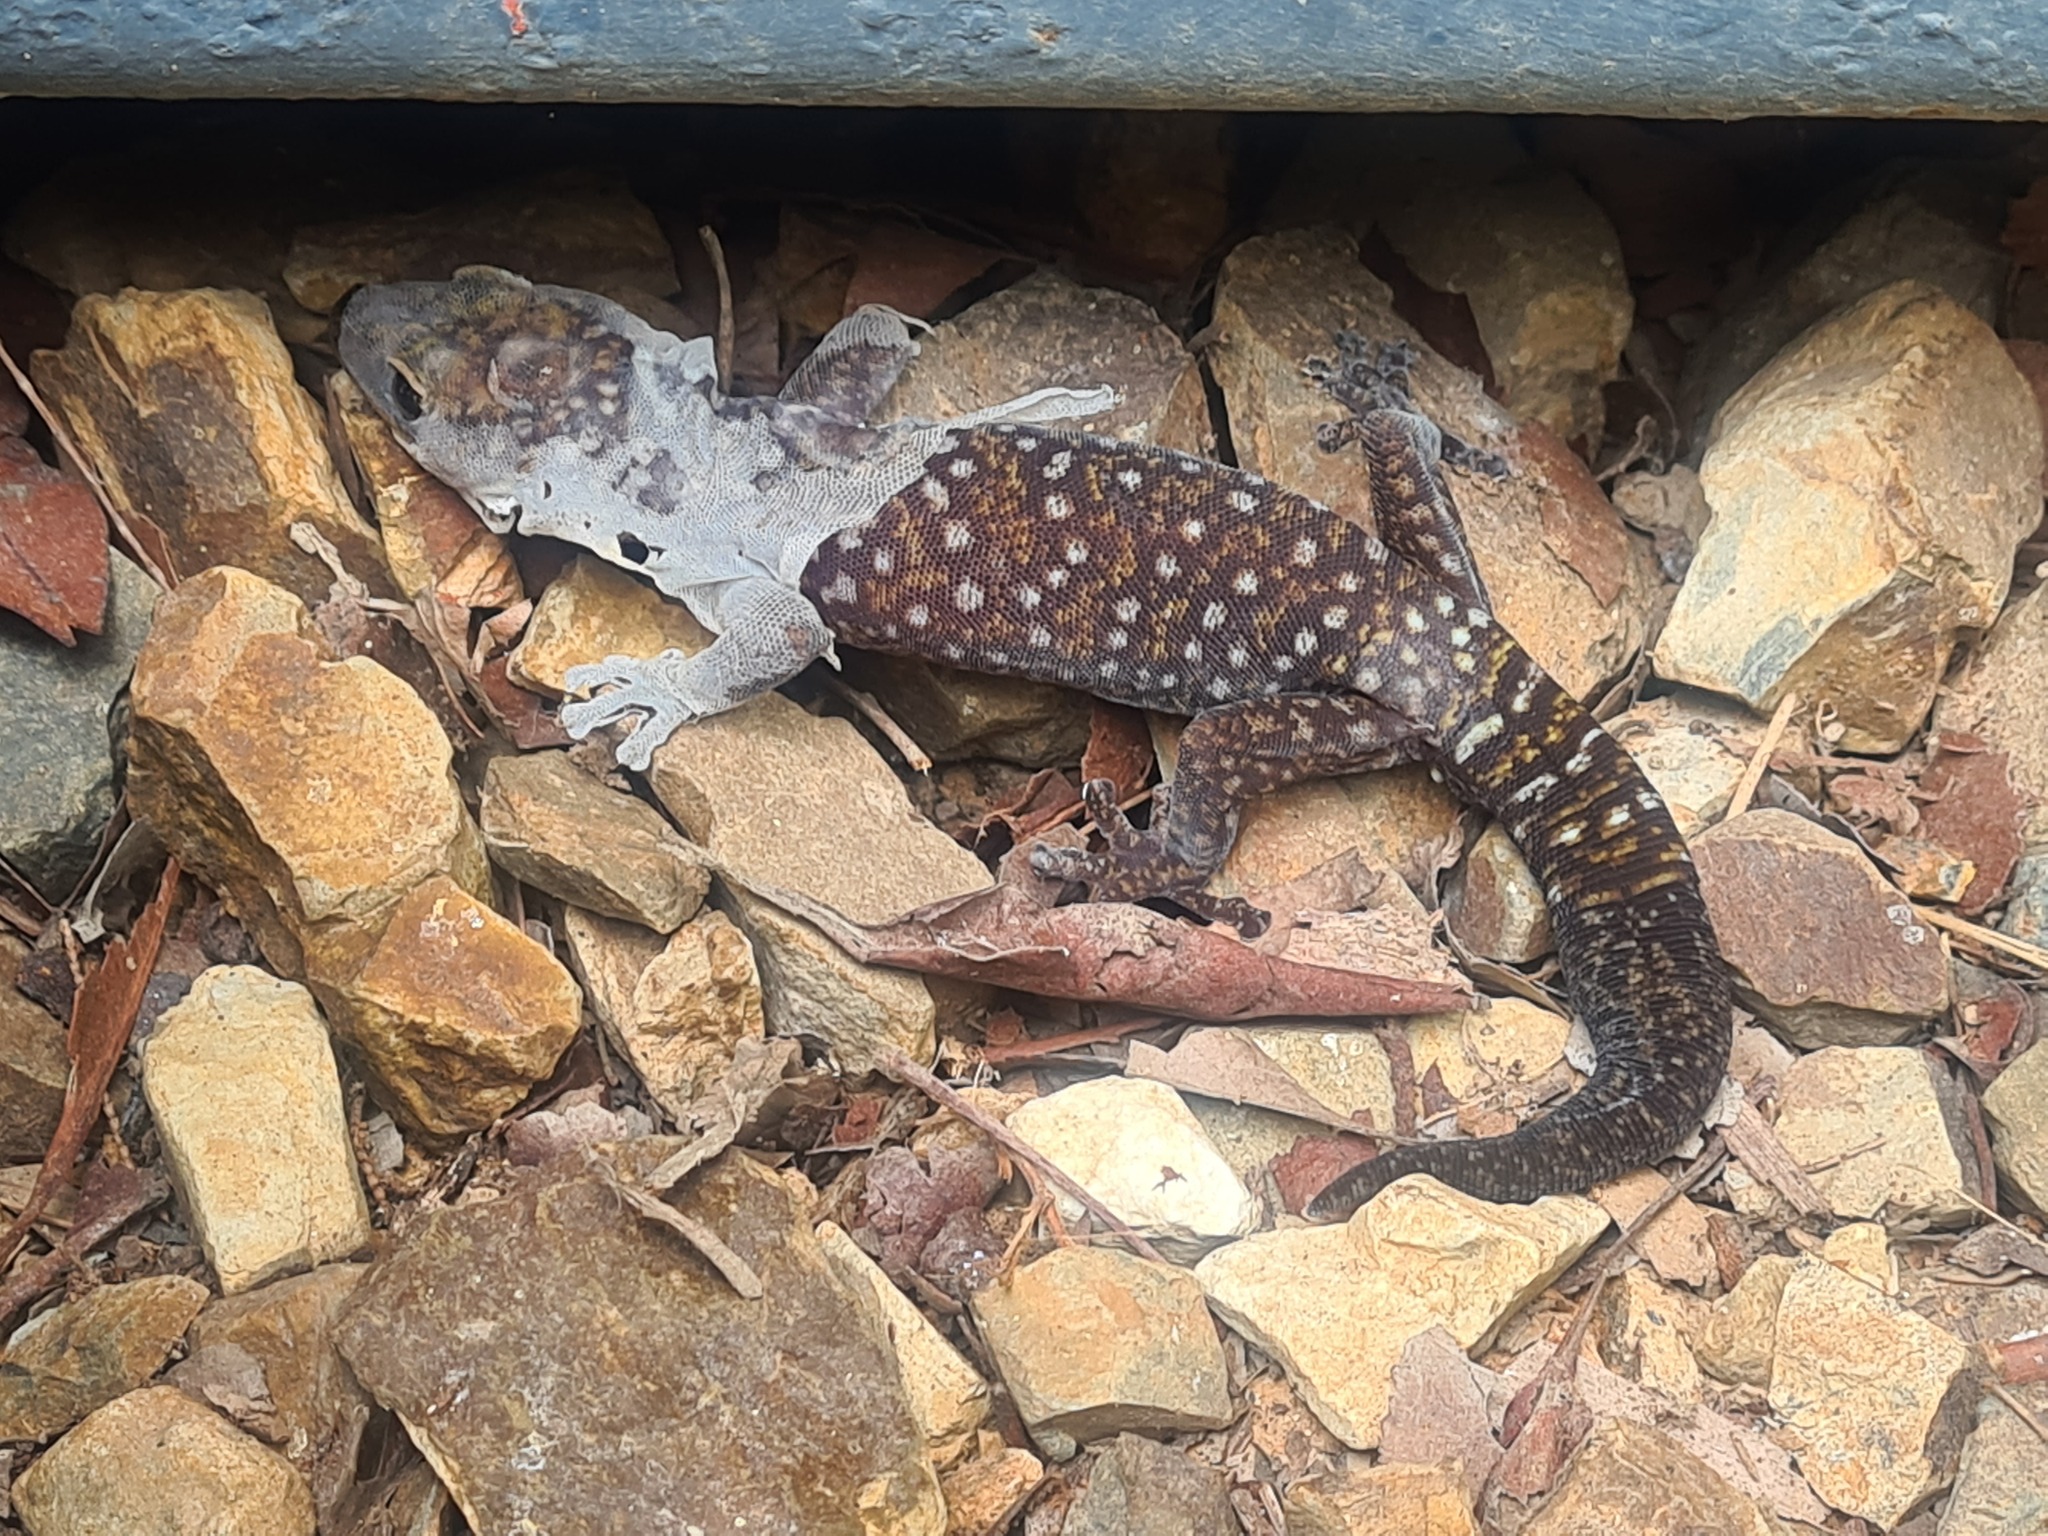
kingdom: Animalia
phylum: Chordata
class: Squamata
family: Diplodactylidae
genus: Oedura
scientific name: Oedura tryoni
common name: Southern spotted velvet gecko
